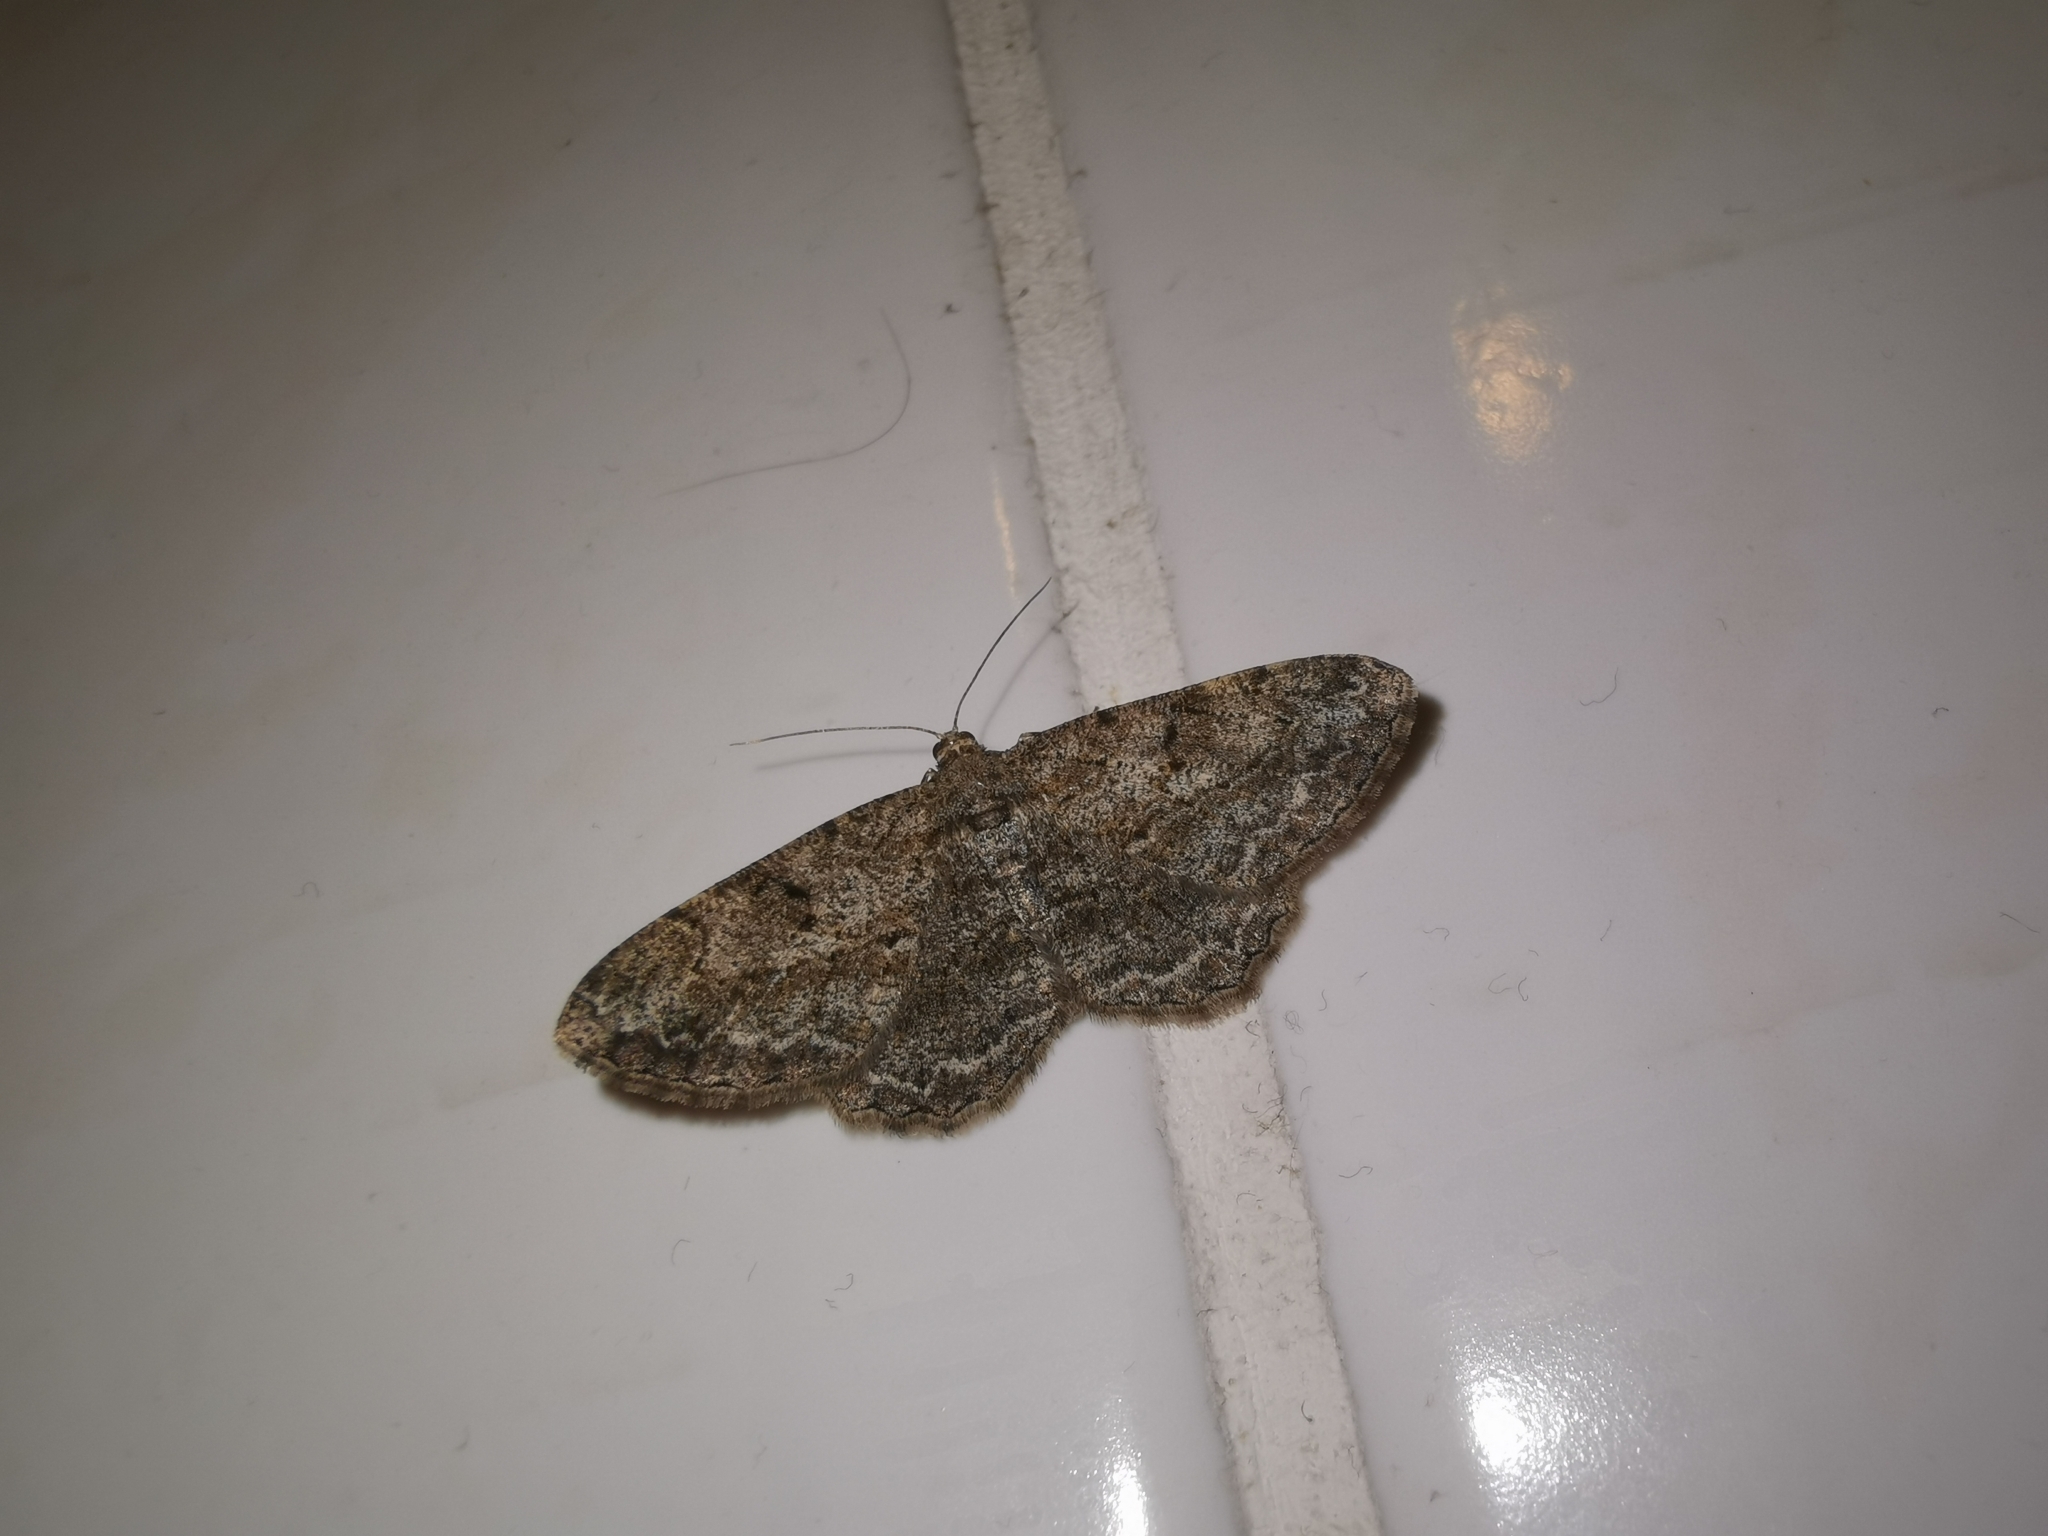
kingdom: Animalia
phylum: Arthropoda
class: Insecta
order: Lepidoptera
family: Geometridae
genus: Peribatodes
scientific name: Peribatodes rhomboidaria
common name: Willow beauty
